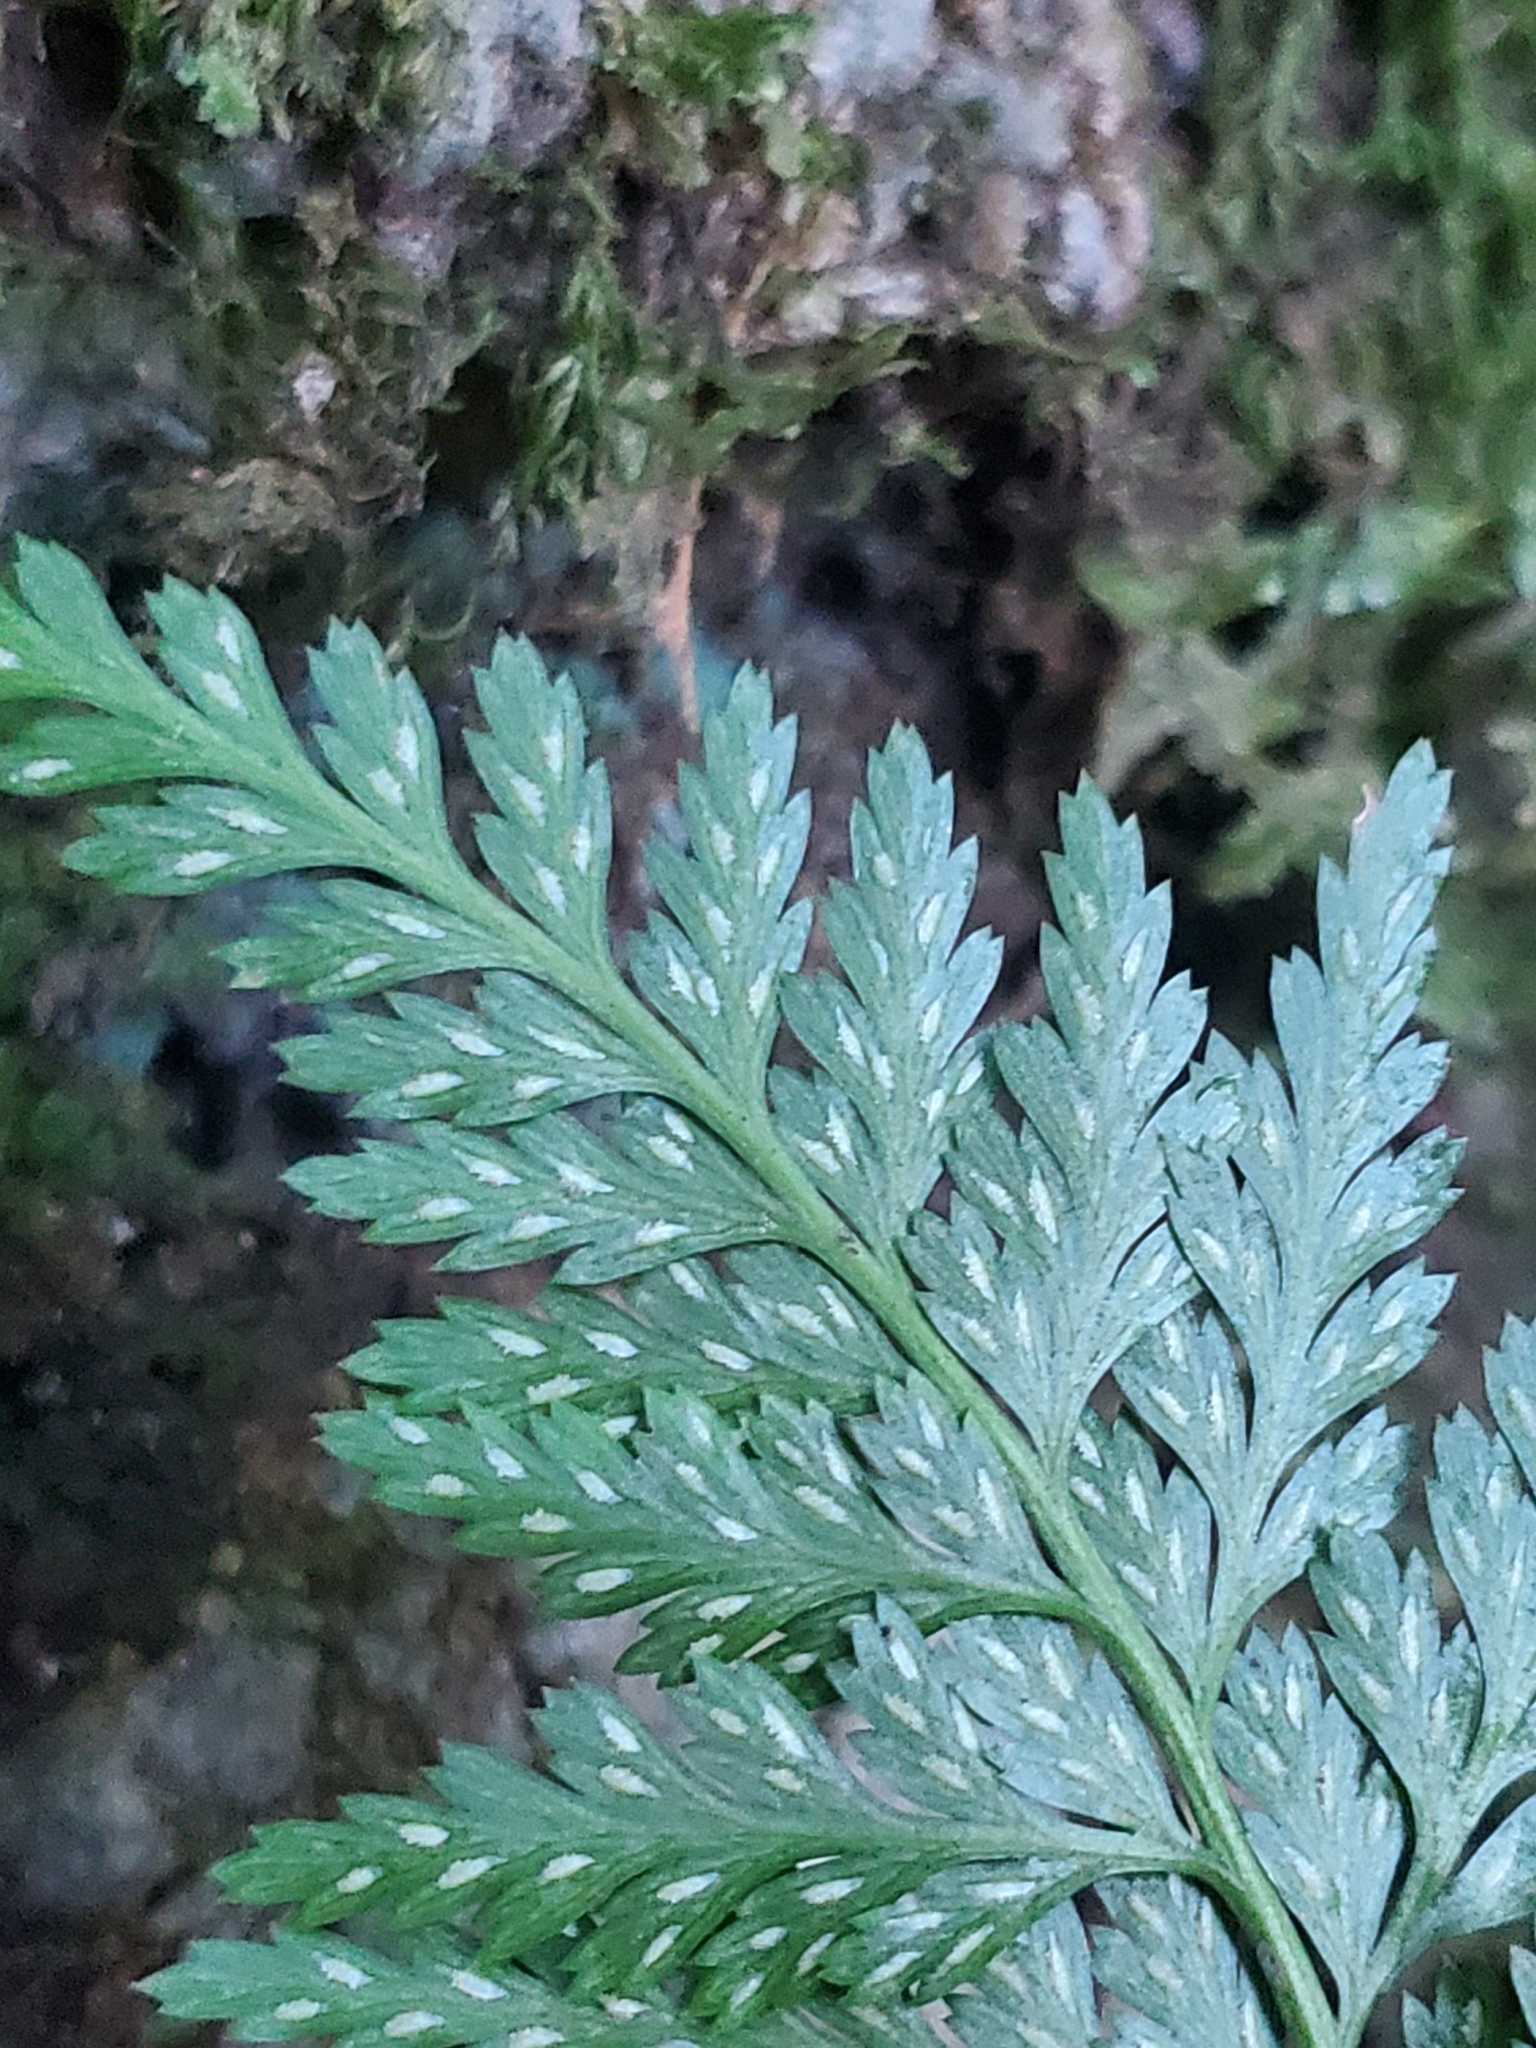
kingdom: Plantae
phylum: Tracheophyta
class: Polypodiopsida
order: Polypodiales
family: Aspleniaceae
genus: Asplenium
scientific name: Asplenium onopteris
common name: Irish spleenwort
